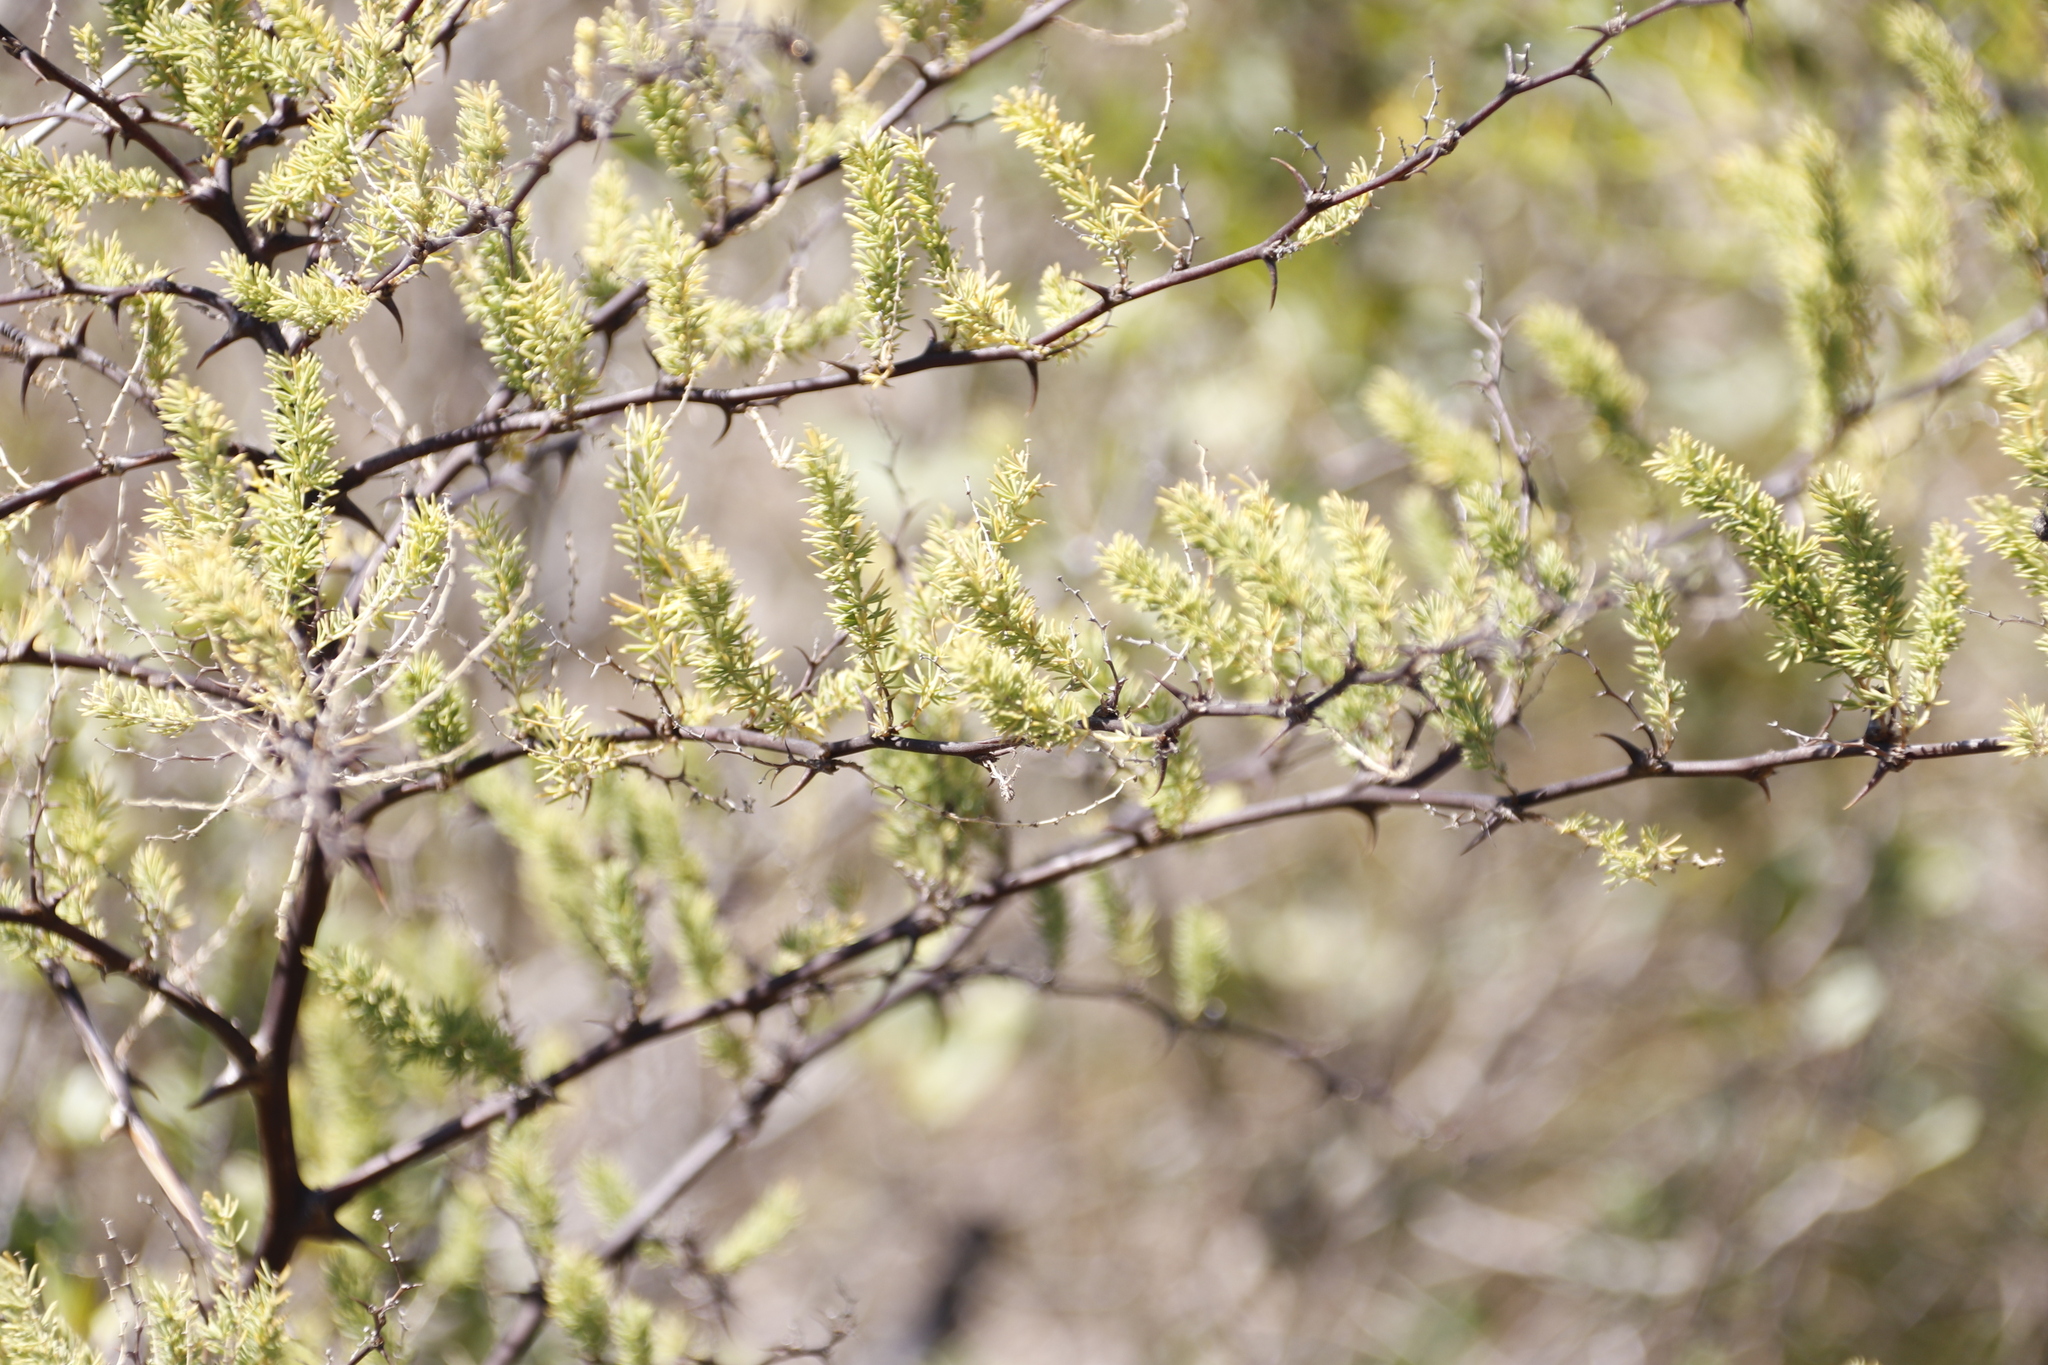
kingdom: Plantae
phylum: Tracheophyta
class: Liliopsida
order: Asparagales
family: Asparagaceae
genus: Asparagus
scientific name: Asparagus rubicundus
